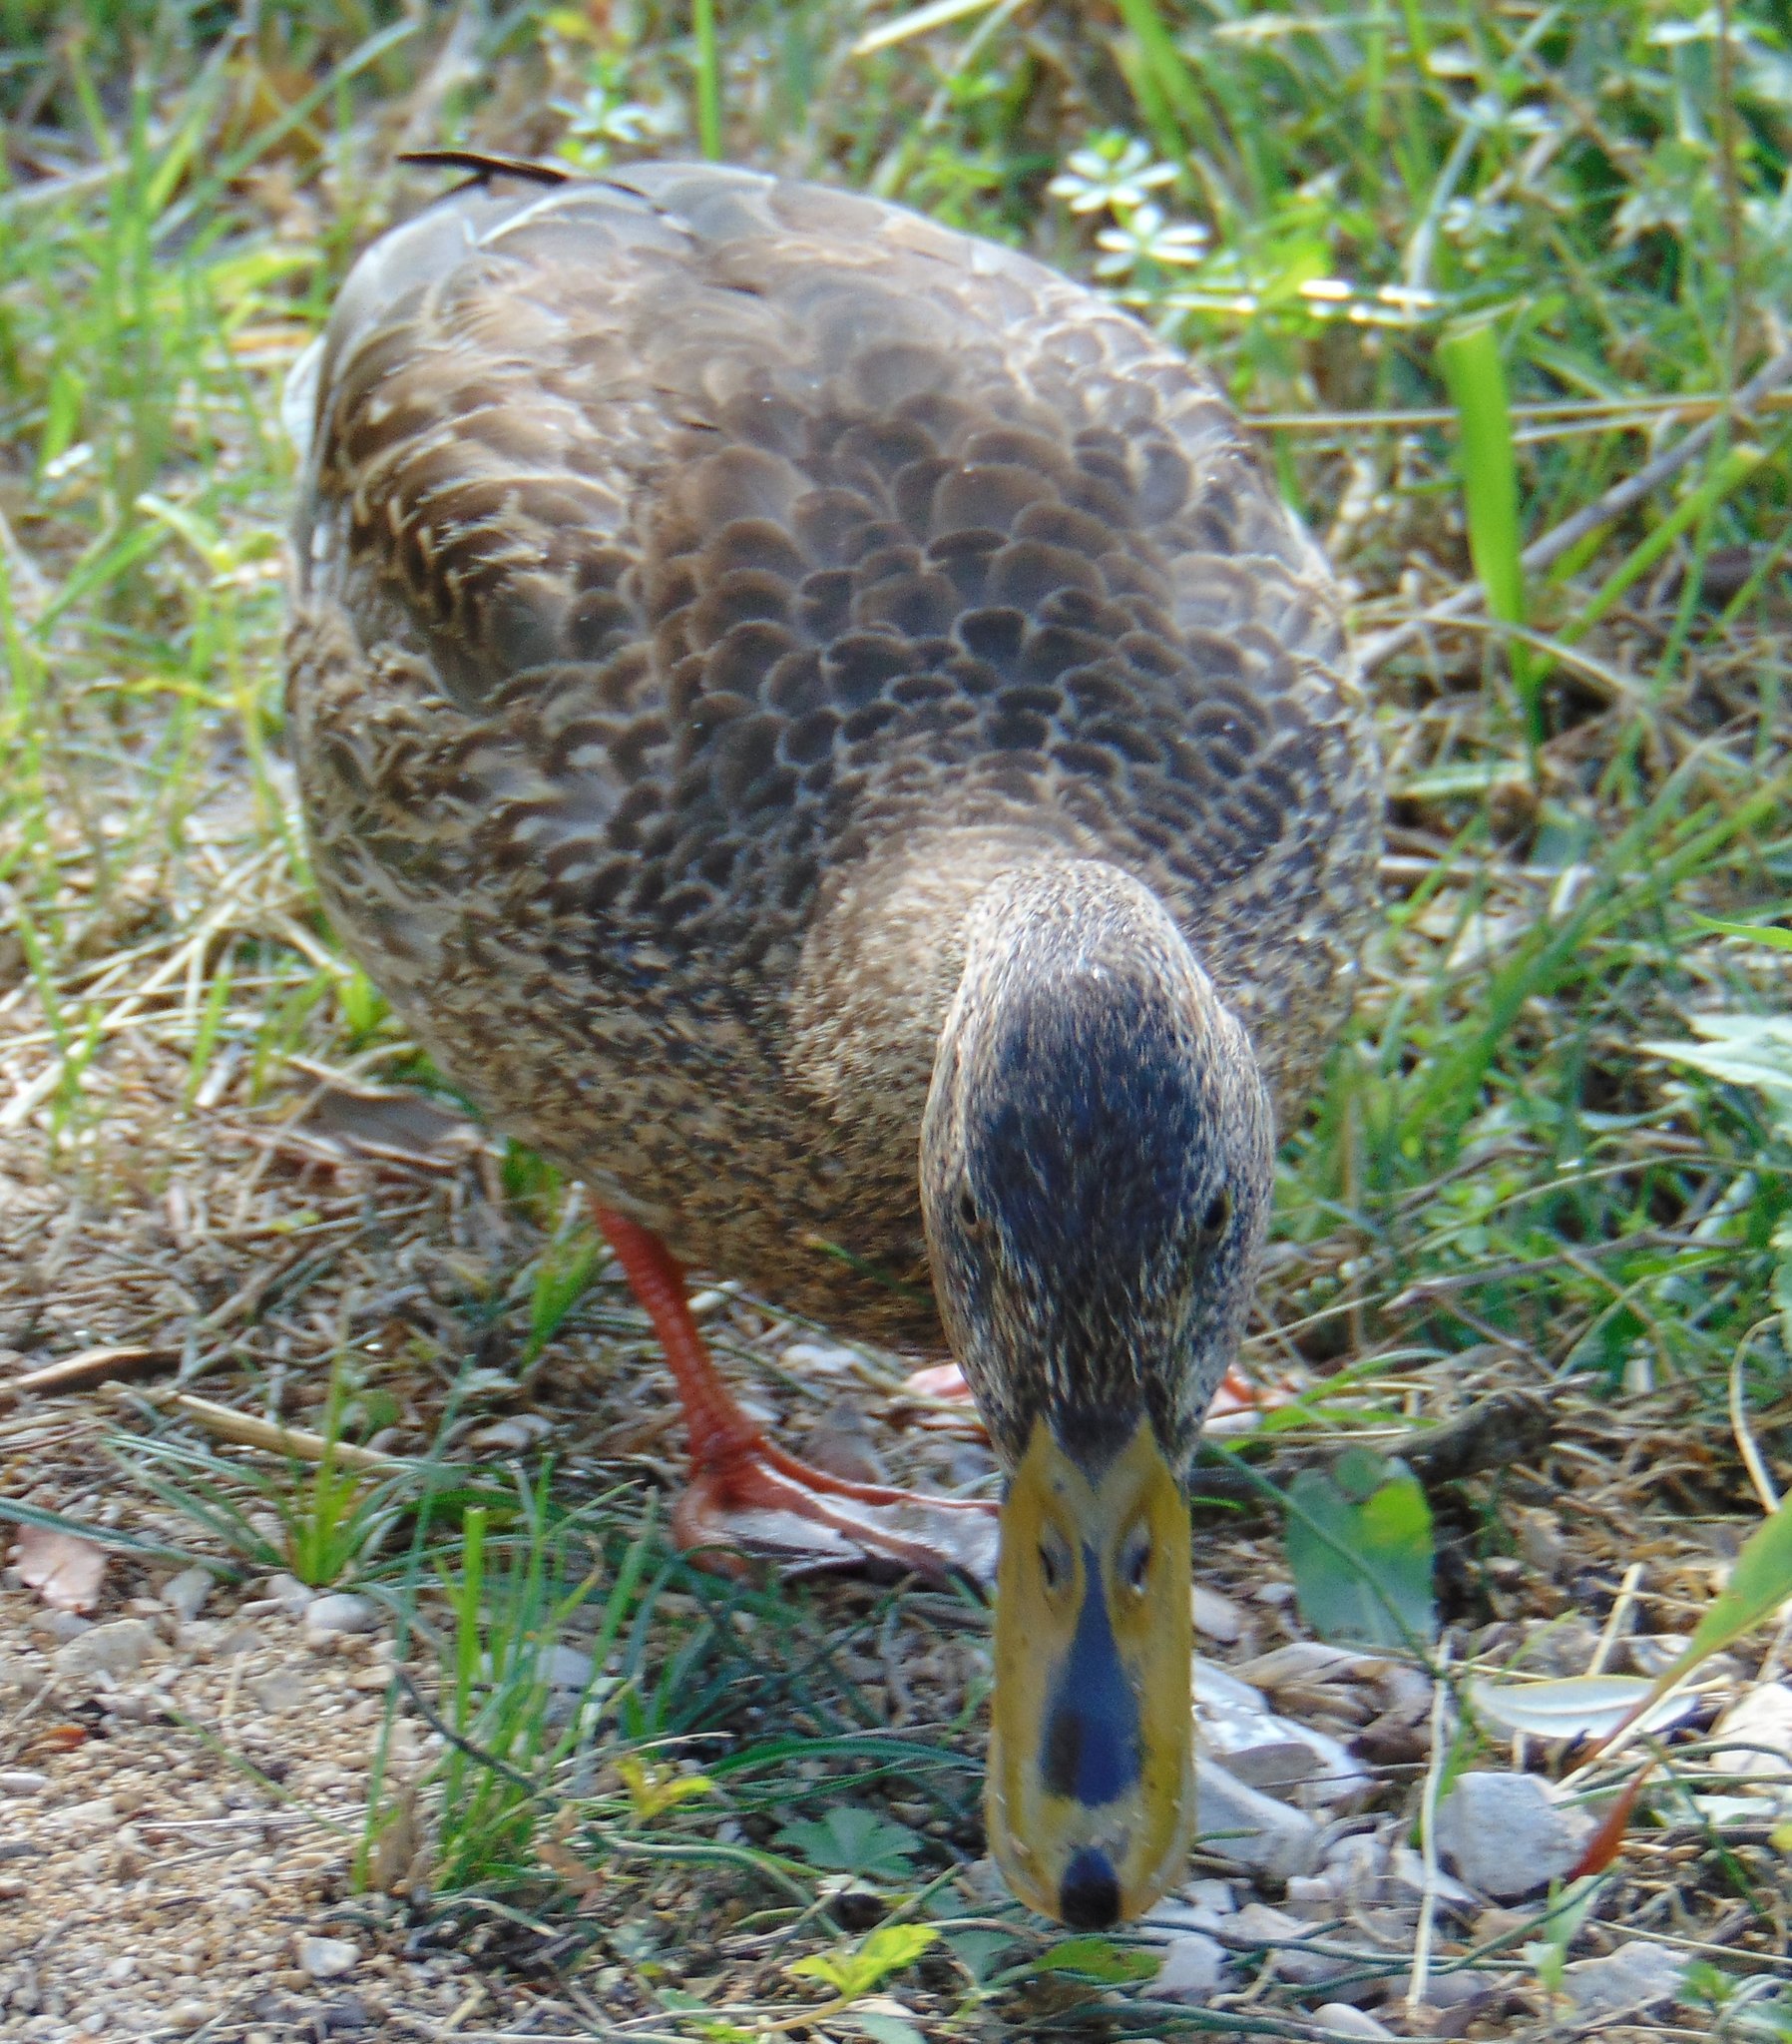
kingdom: Animalia
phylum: Chordata
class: Aves
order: Anseriformes
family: Anatidae
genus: Anas
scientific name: Anas platyrhynchos
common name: Mallard
